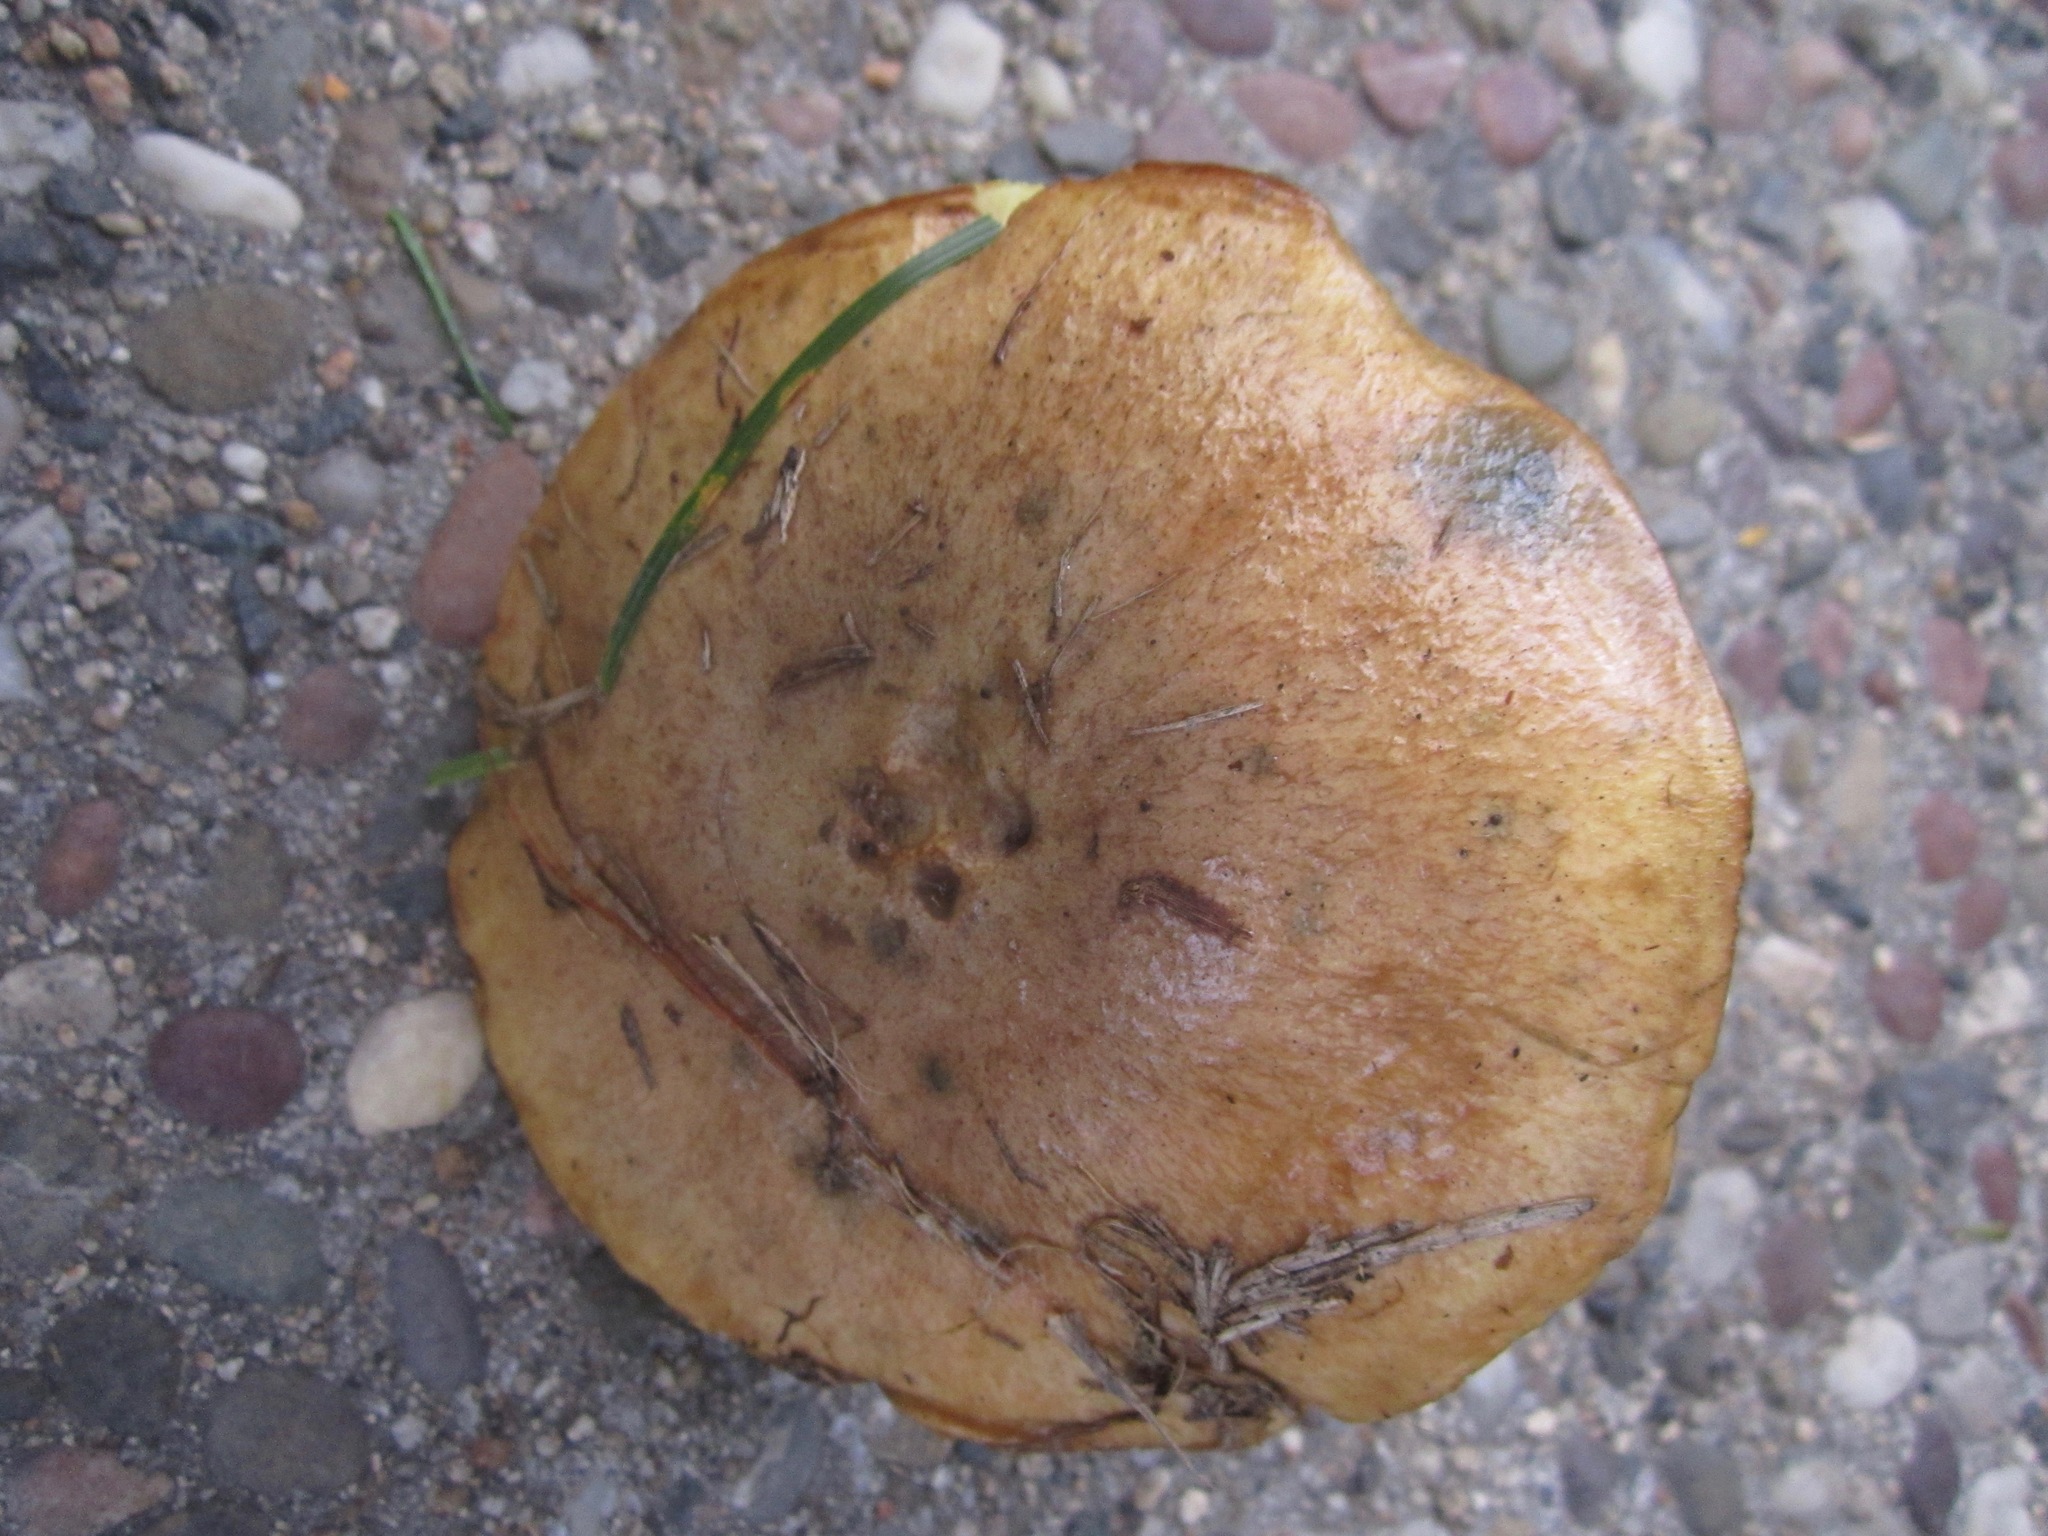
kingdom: Fungi
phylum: Basidiomycota
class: Agaricomycetes
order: Boletales
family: Suillaceae
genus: Suillus
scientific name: Suillus pungens
